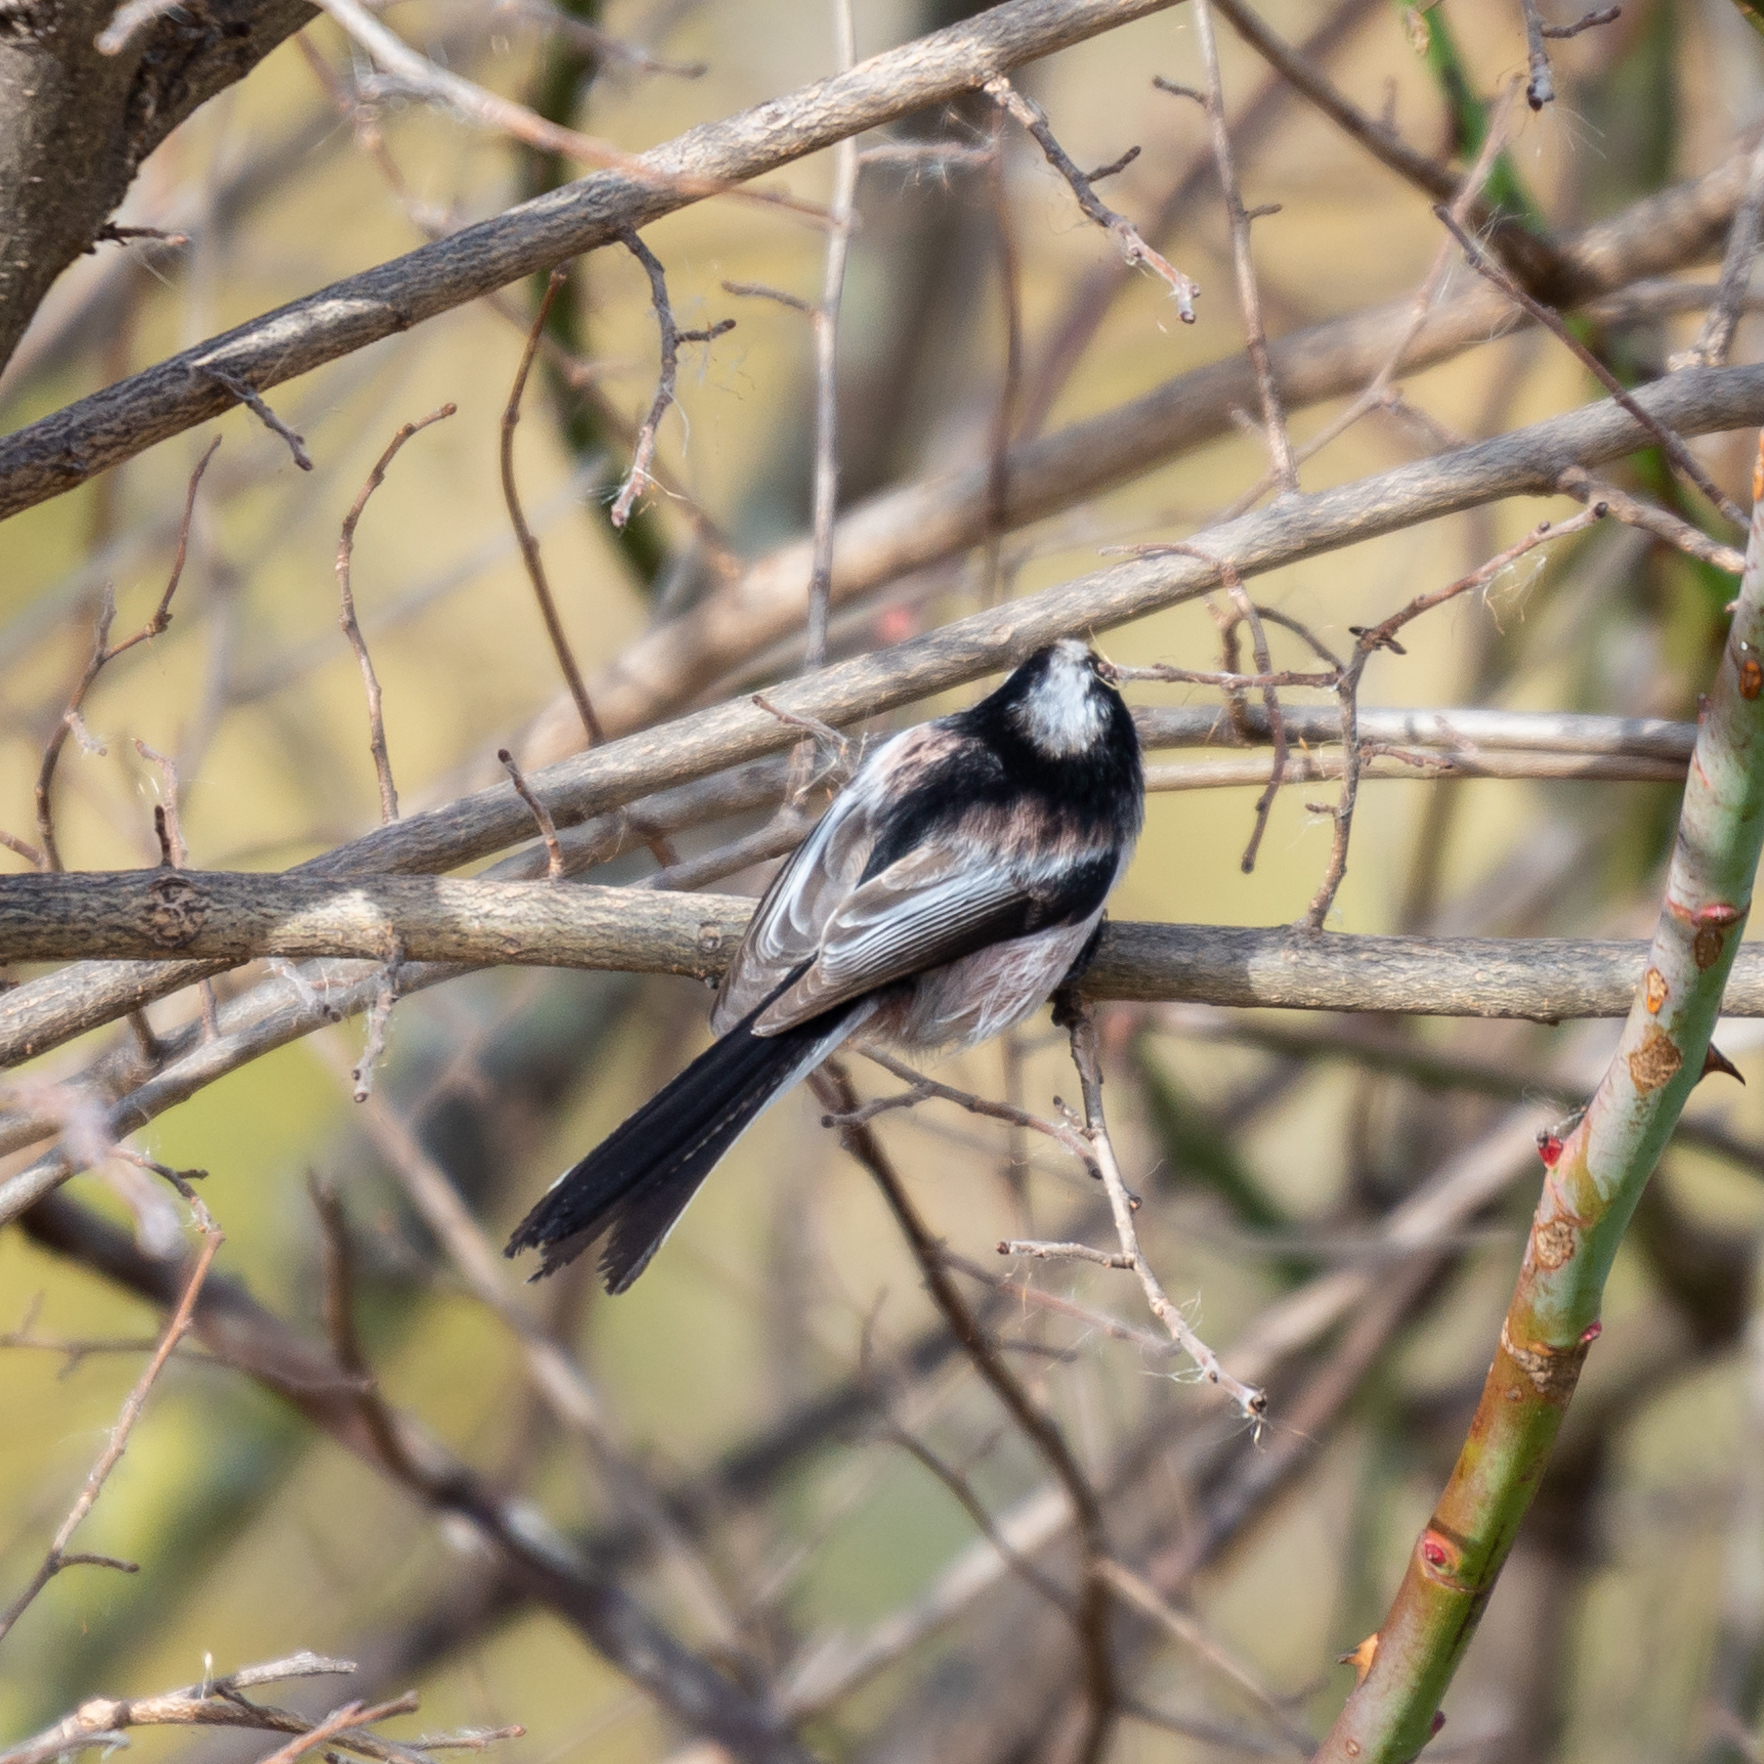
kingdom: Animalia
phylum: Chordata
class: Aves
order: Passeriformes
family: Aegithalidae
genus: Aegithalos
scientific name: Aegithalos caudatus
